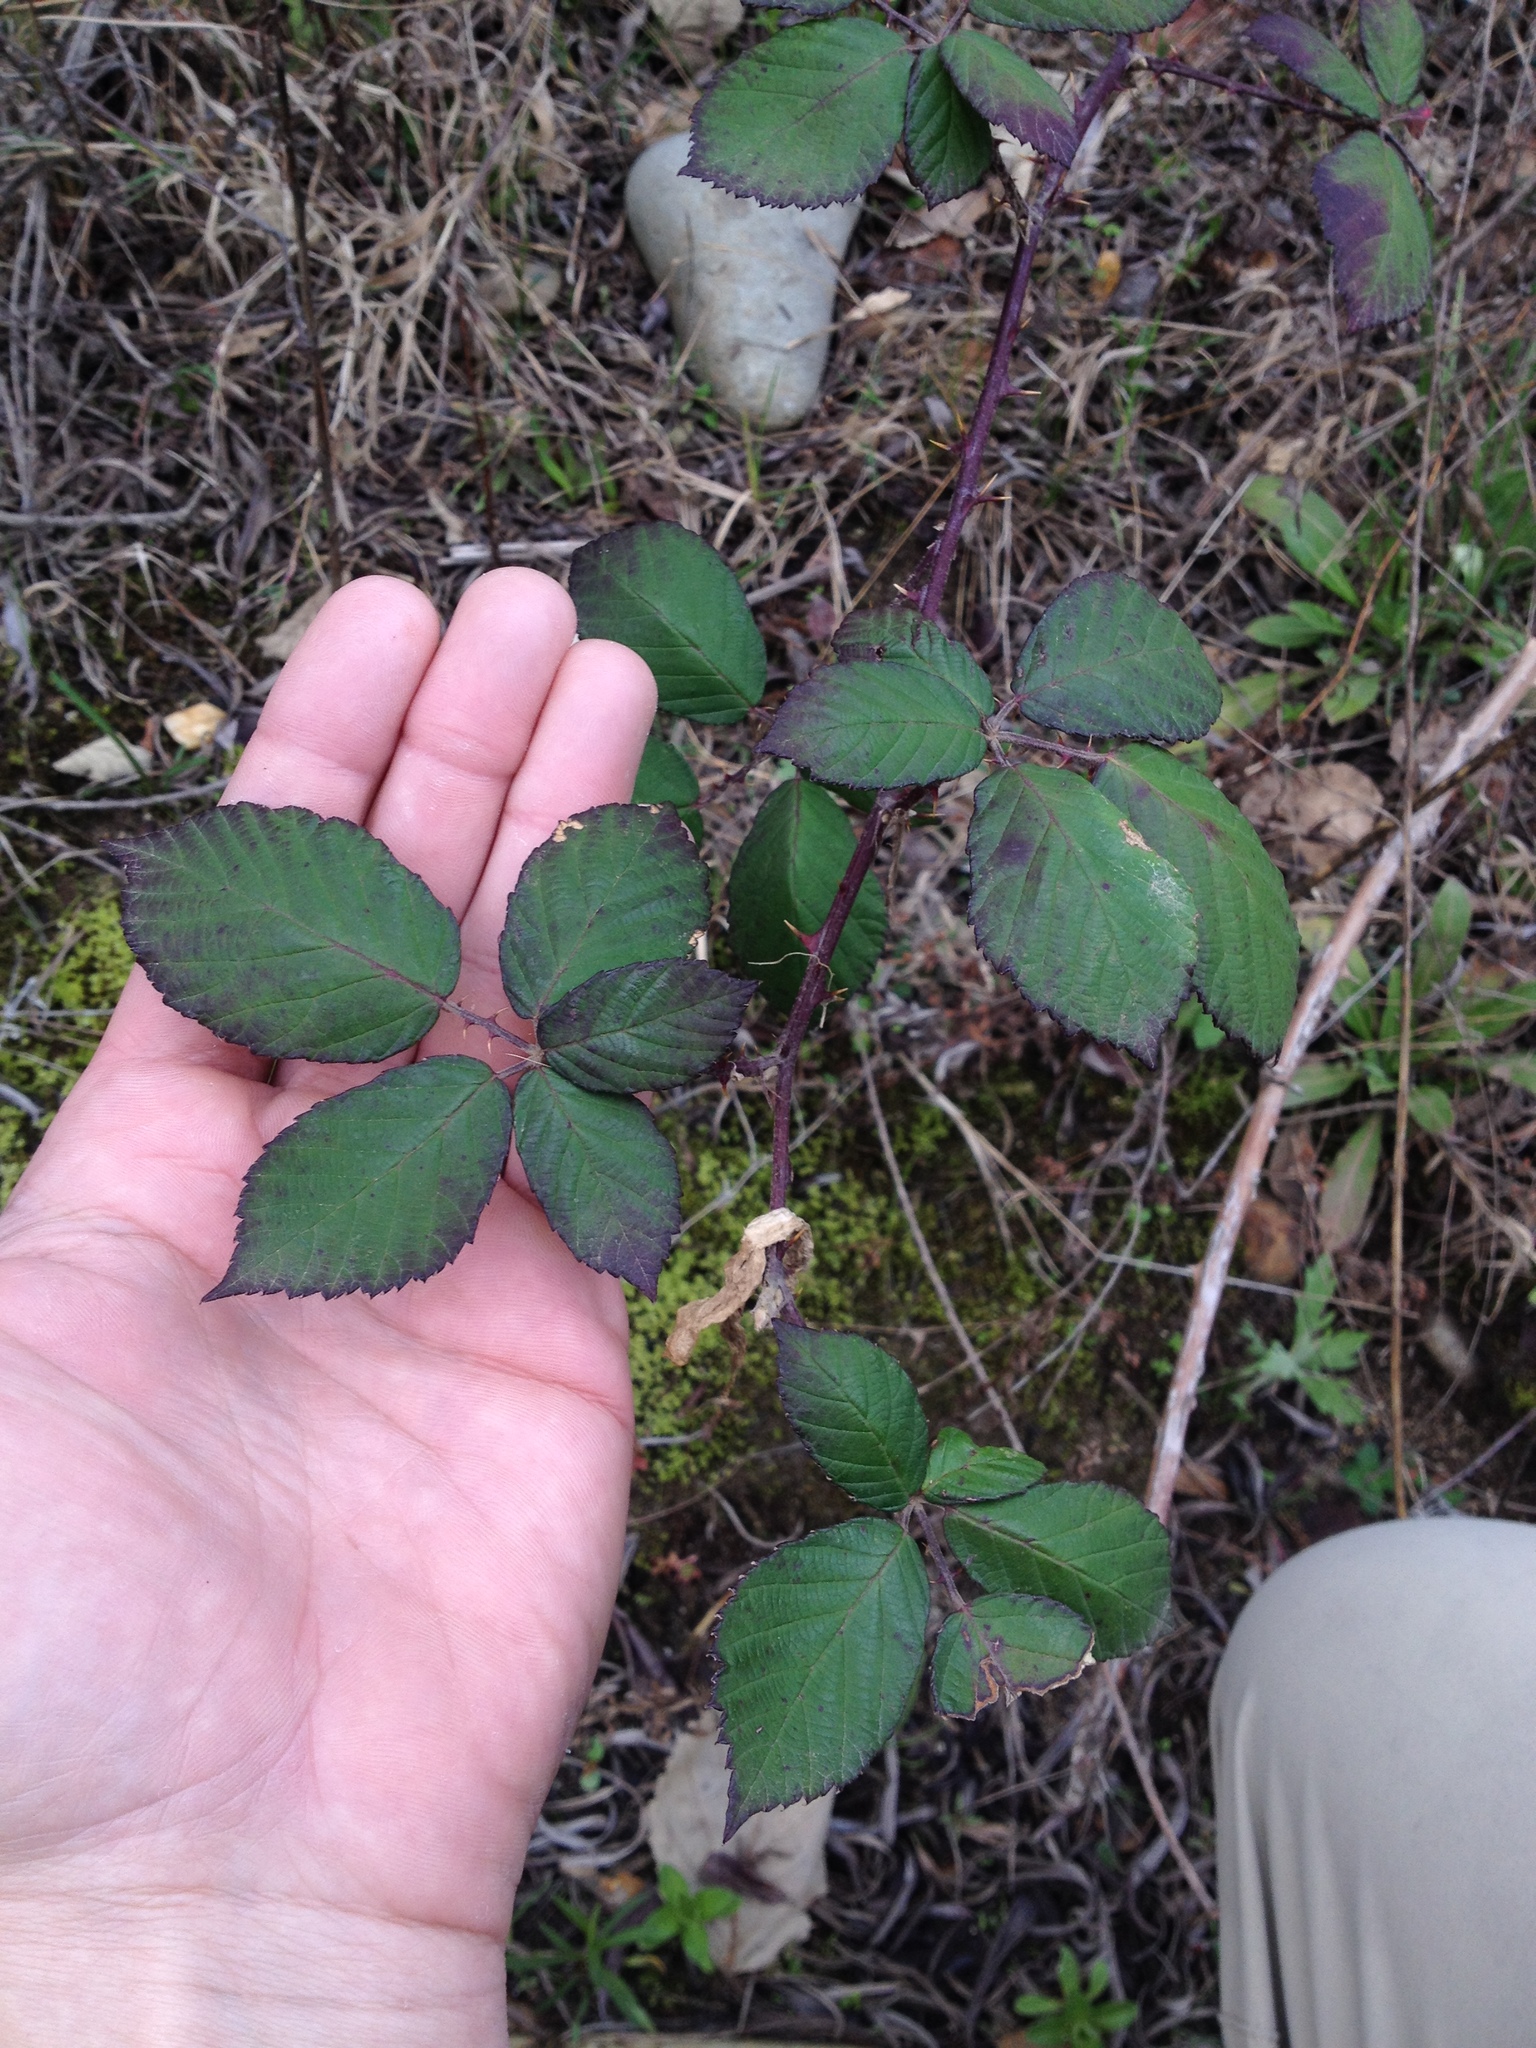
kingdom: Plantae
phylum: Tracheophyta
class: Magnoliopsida
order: Rosales
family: Rosaceae
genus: Rubus
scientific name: Rubus armeniacus
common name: Himalayan blackberry
